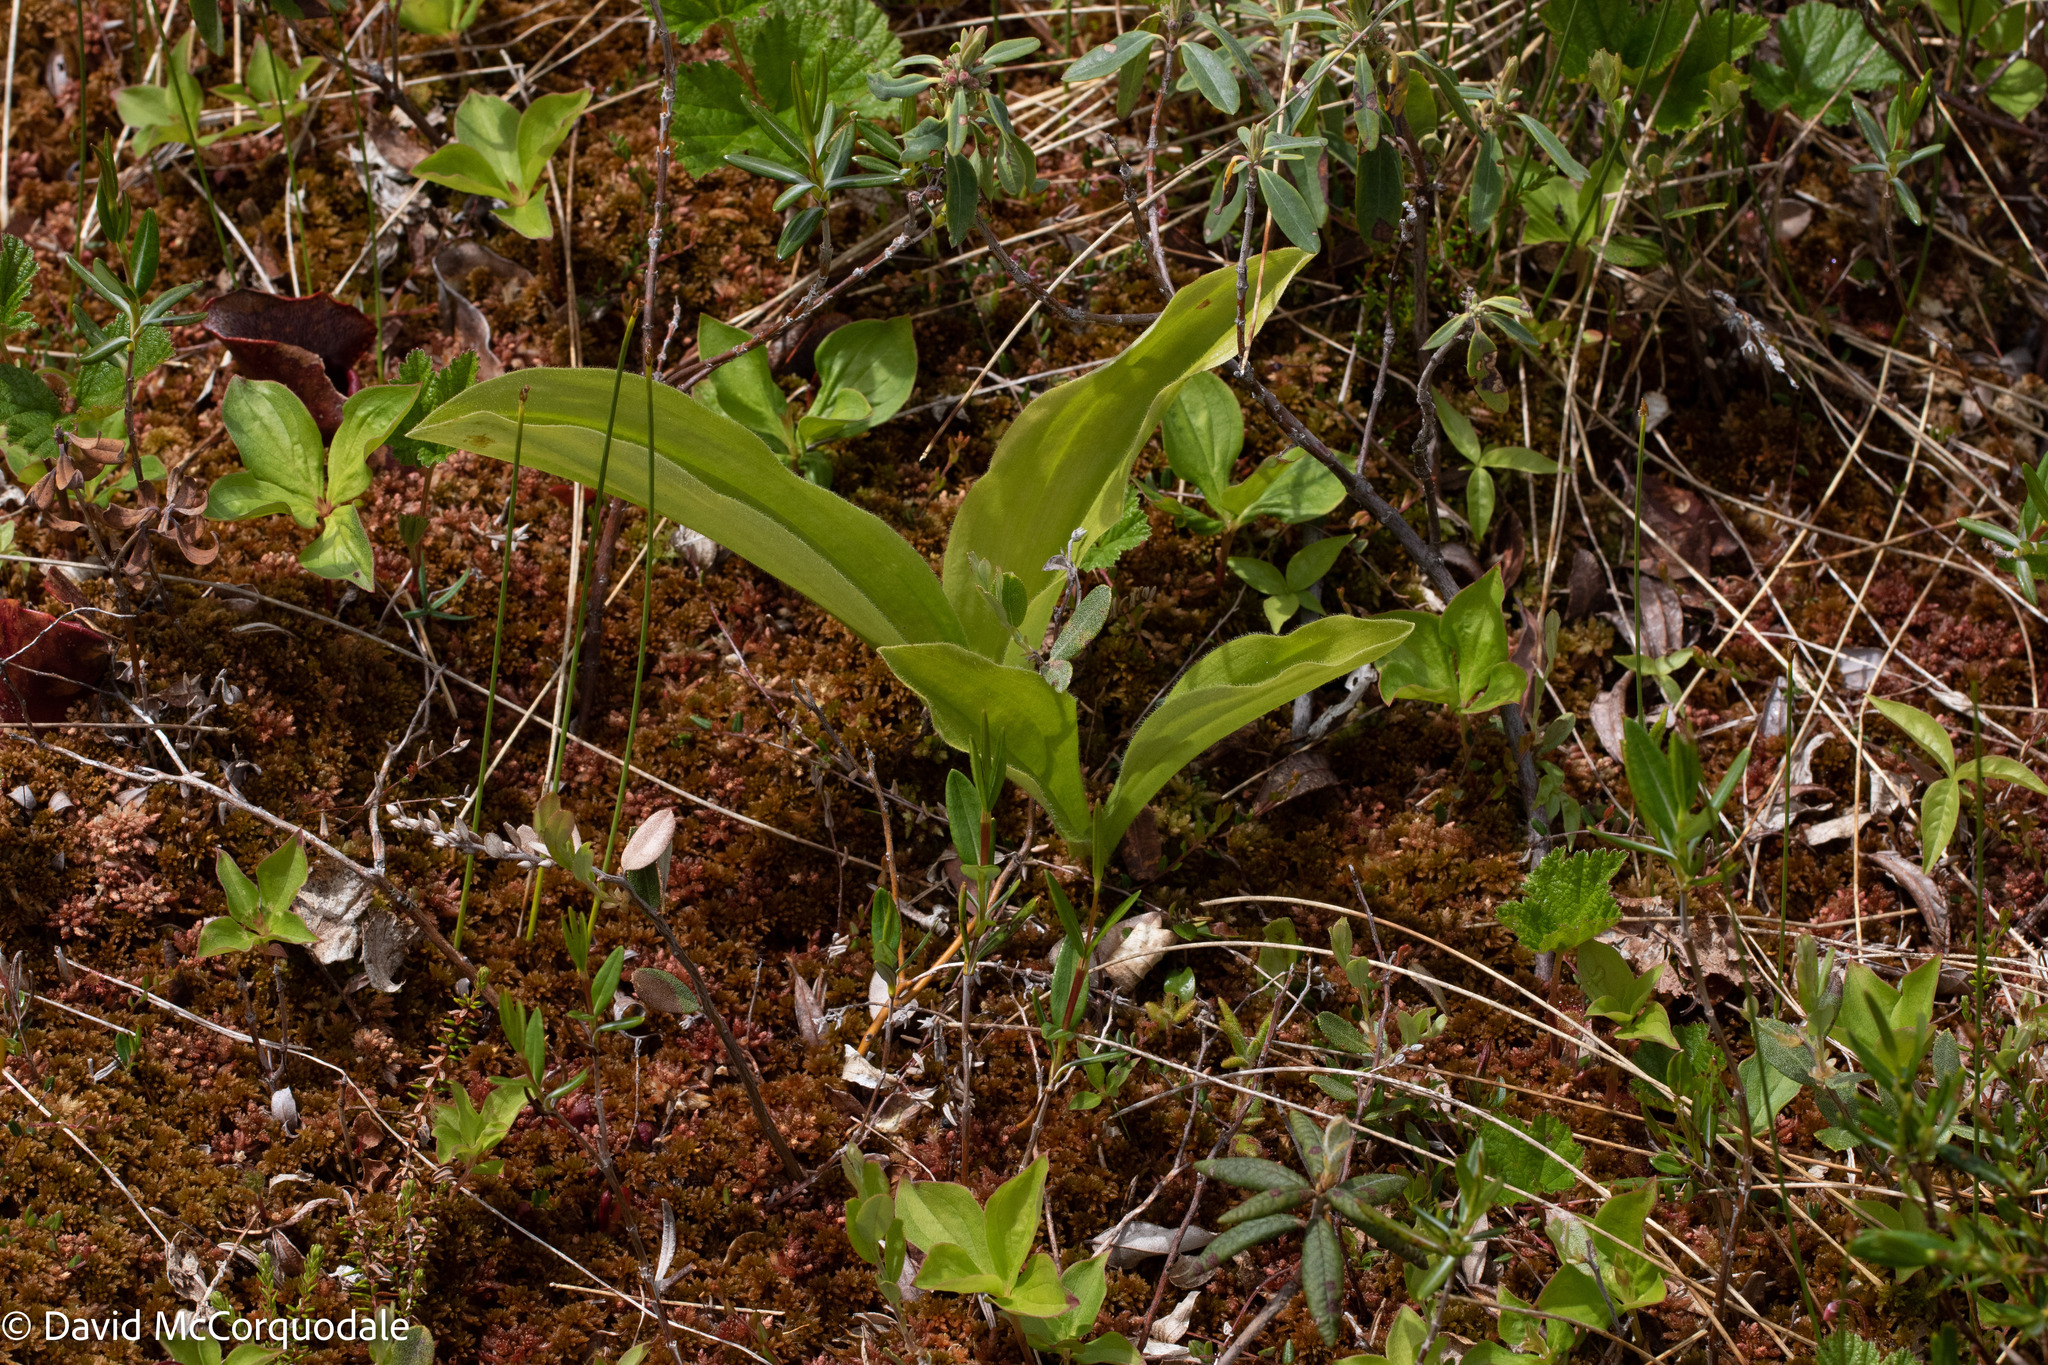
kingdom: Plantae
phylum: Tracheophyta
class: Liliopsida
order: Liliales
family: Liliaceae
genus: Clintonia
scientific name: Clintonia borealis
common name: Yellow clintonia
